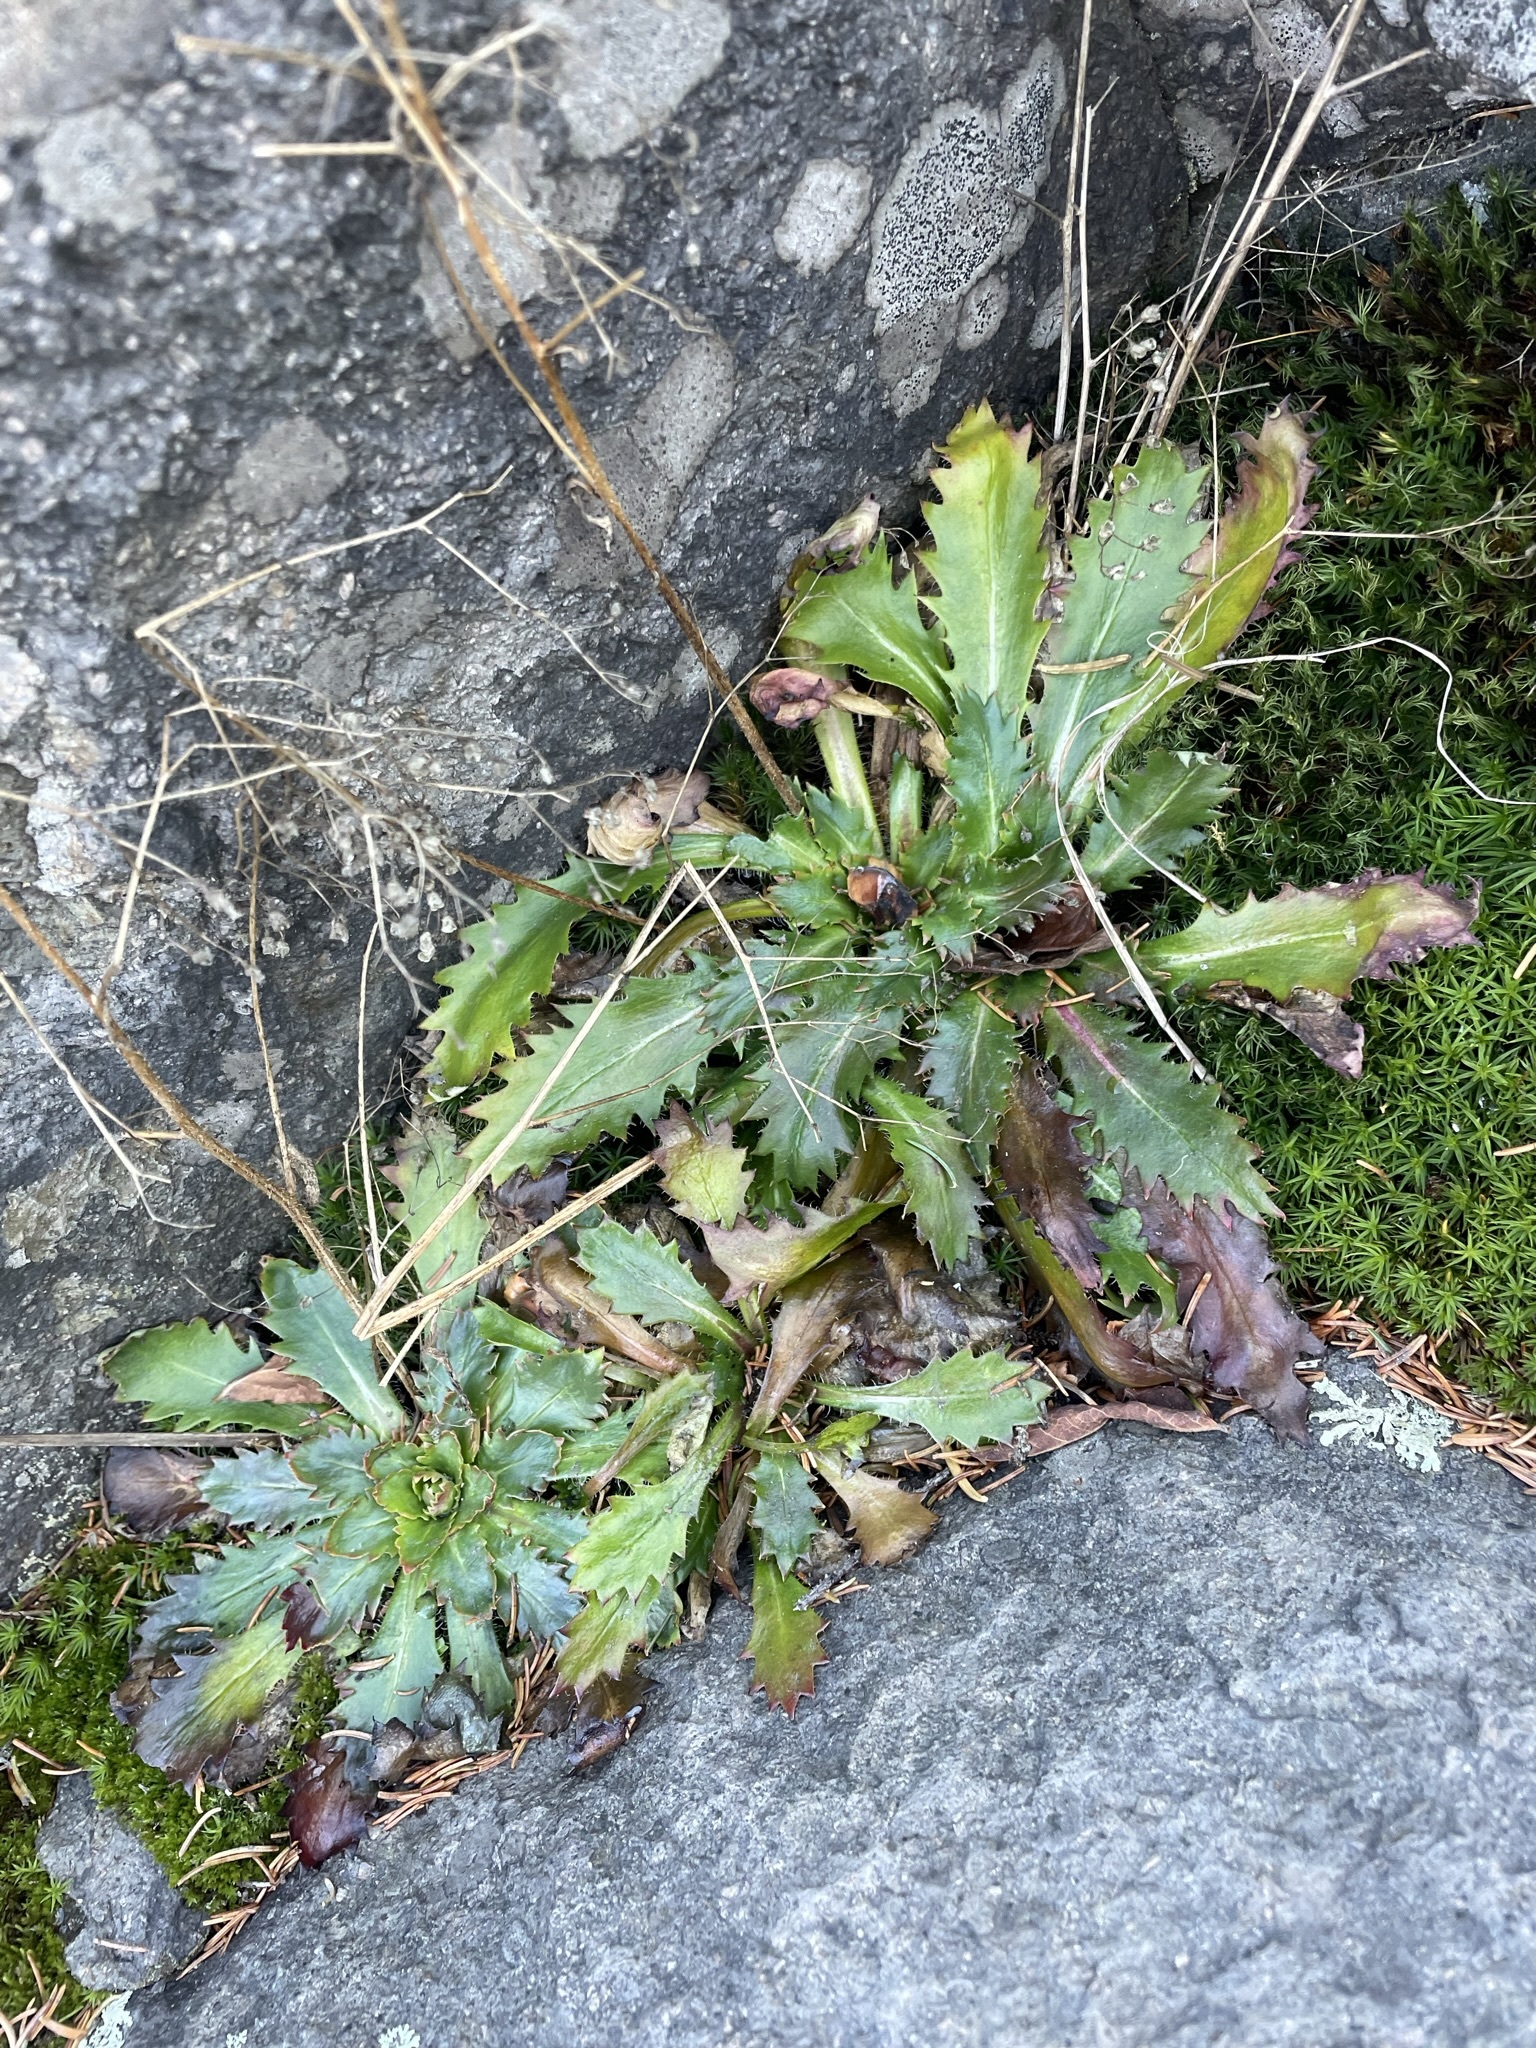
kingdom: Plantae
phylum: Tracheophyta
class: Magnoliopsida
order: Saxifragales
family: Saxifragaceae
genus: Micranthes
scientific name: Micranthes petiolaris
